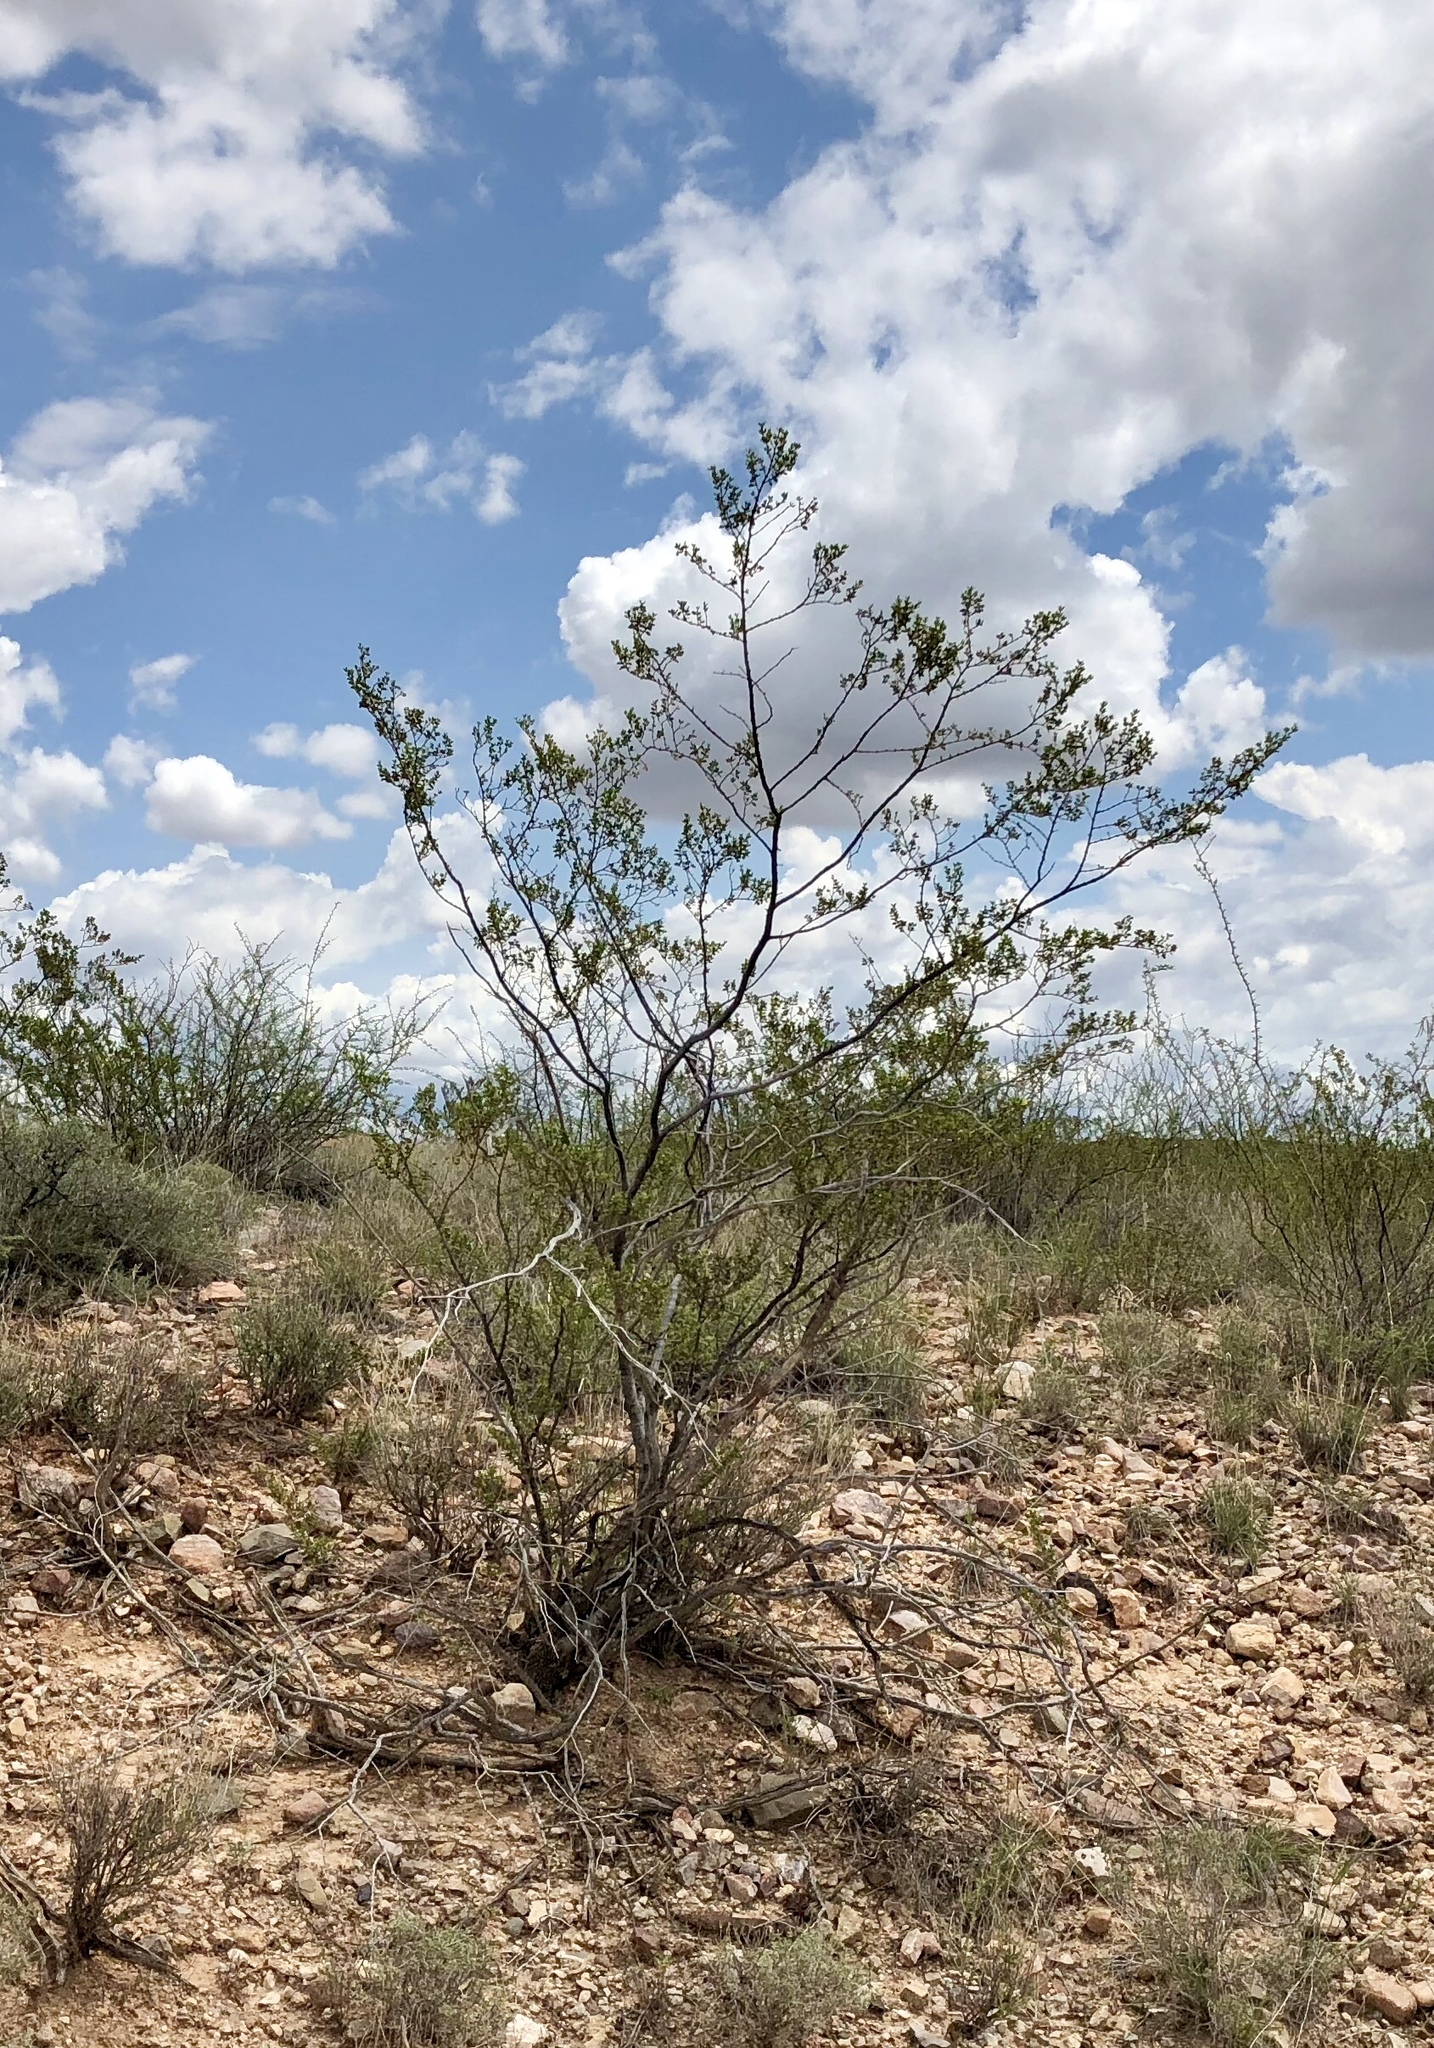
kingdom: Plantae
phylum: Tracheophyta
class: Magnoliopsida
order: Zygophyllales
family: Zygophyllaceae
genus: Larrea
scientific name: Larrea tridentata
